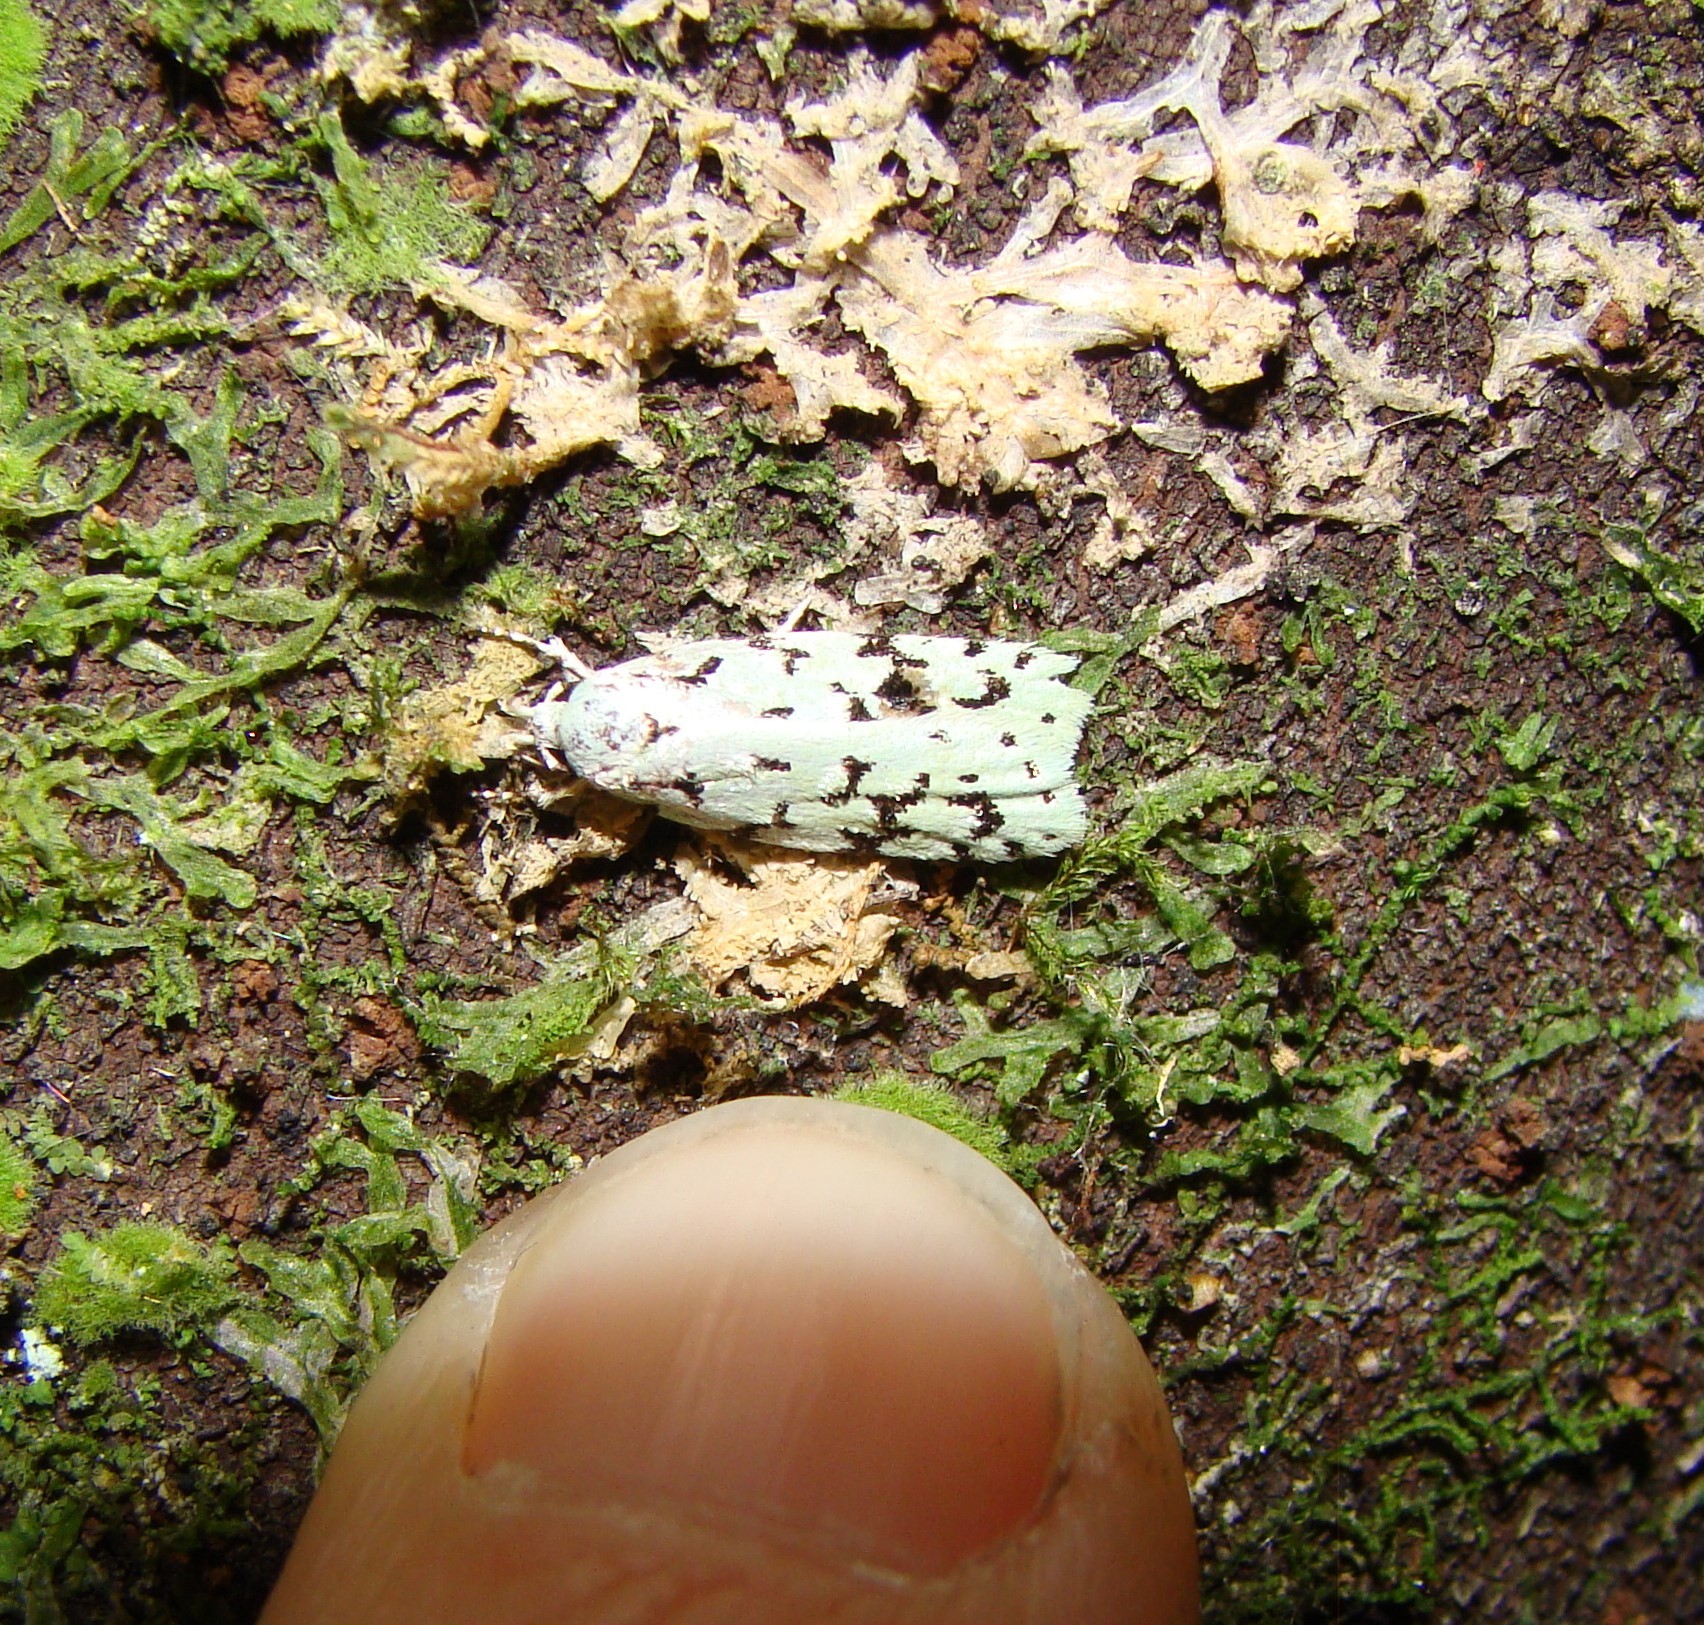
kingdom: Animalia
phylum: Arthropoda
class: Insecta
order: Lepidoptera
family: Oecophoridae
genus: Izatha
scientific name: Izatha peroneanella
